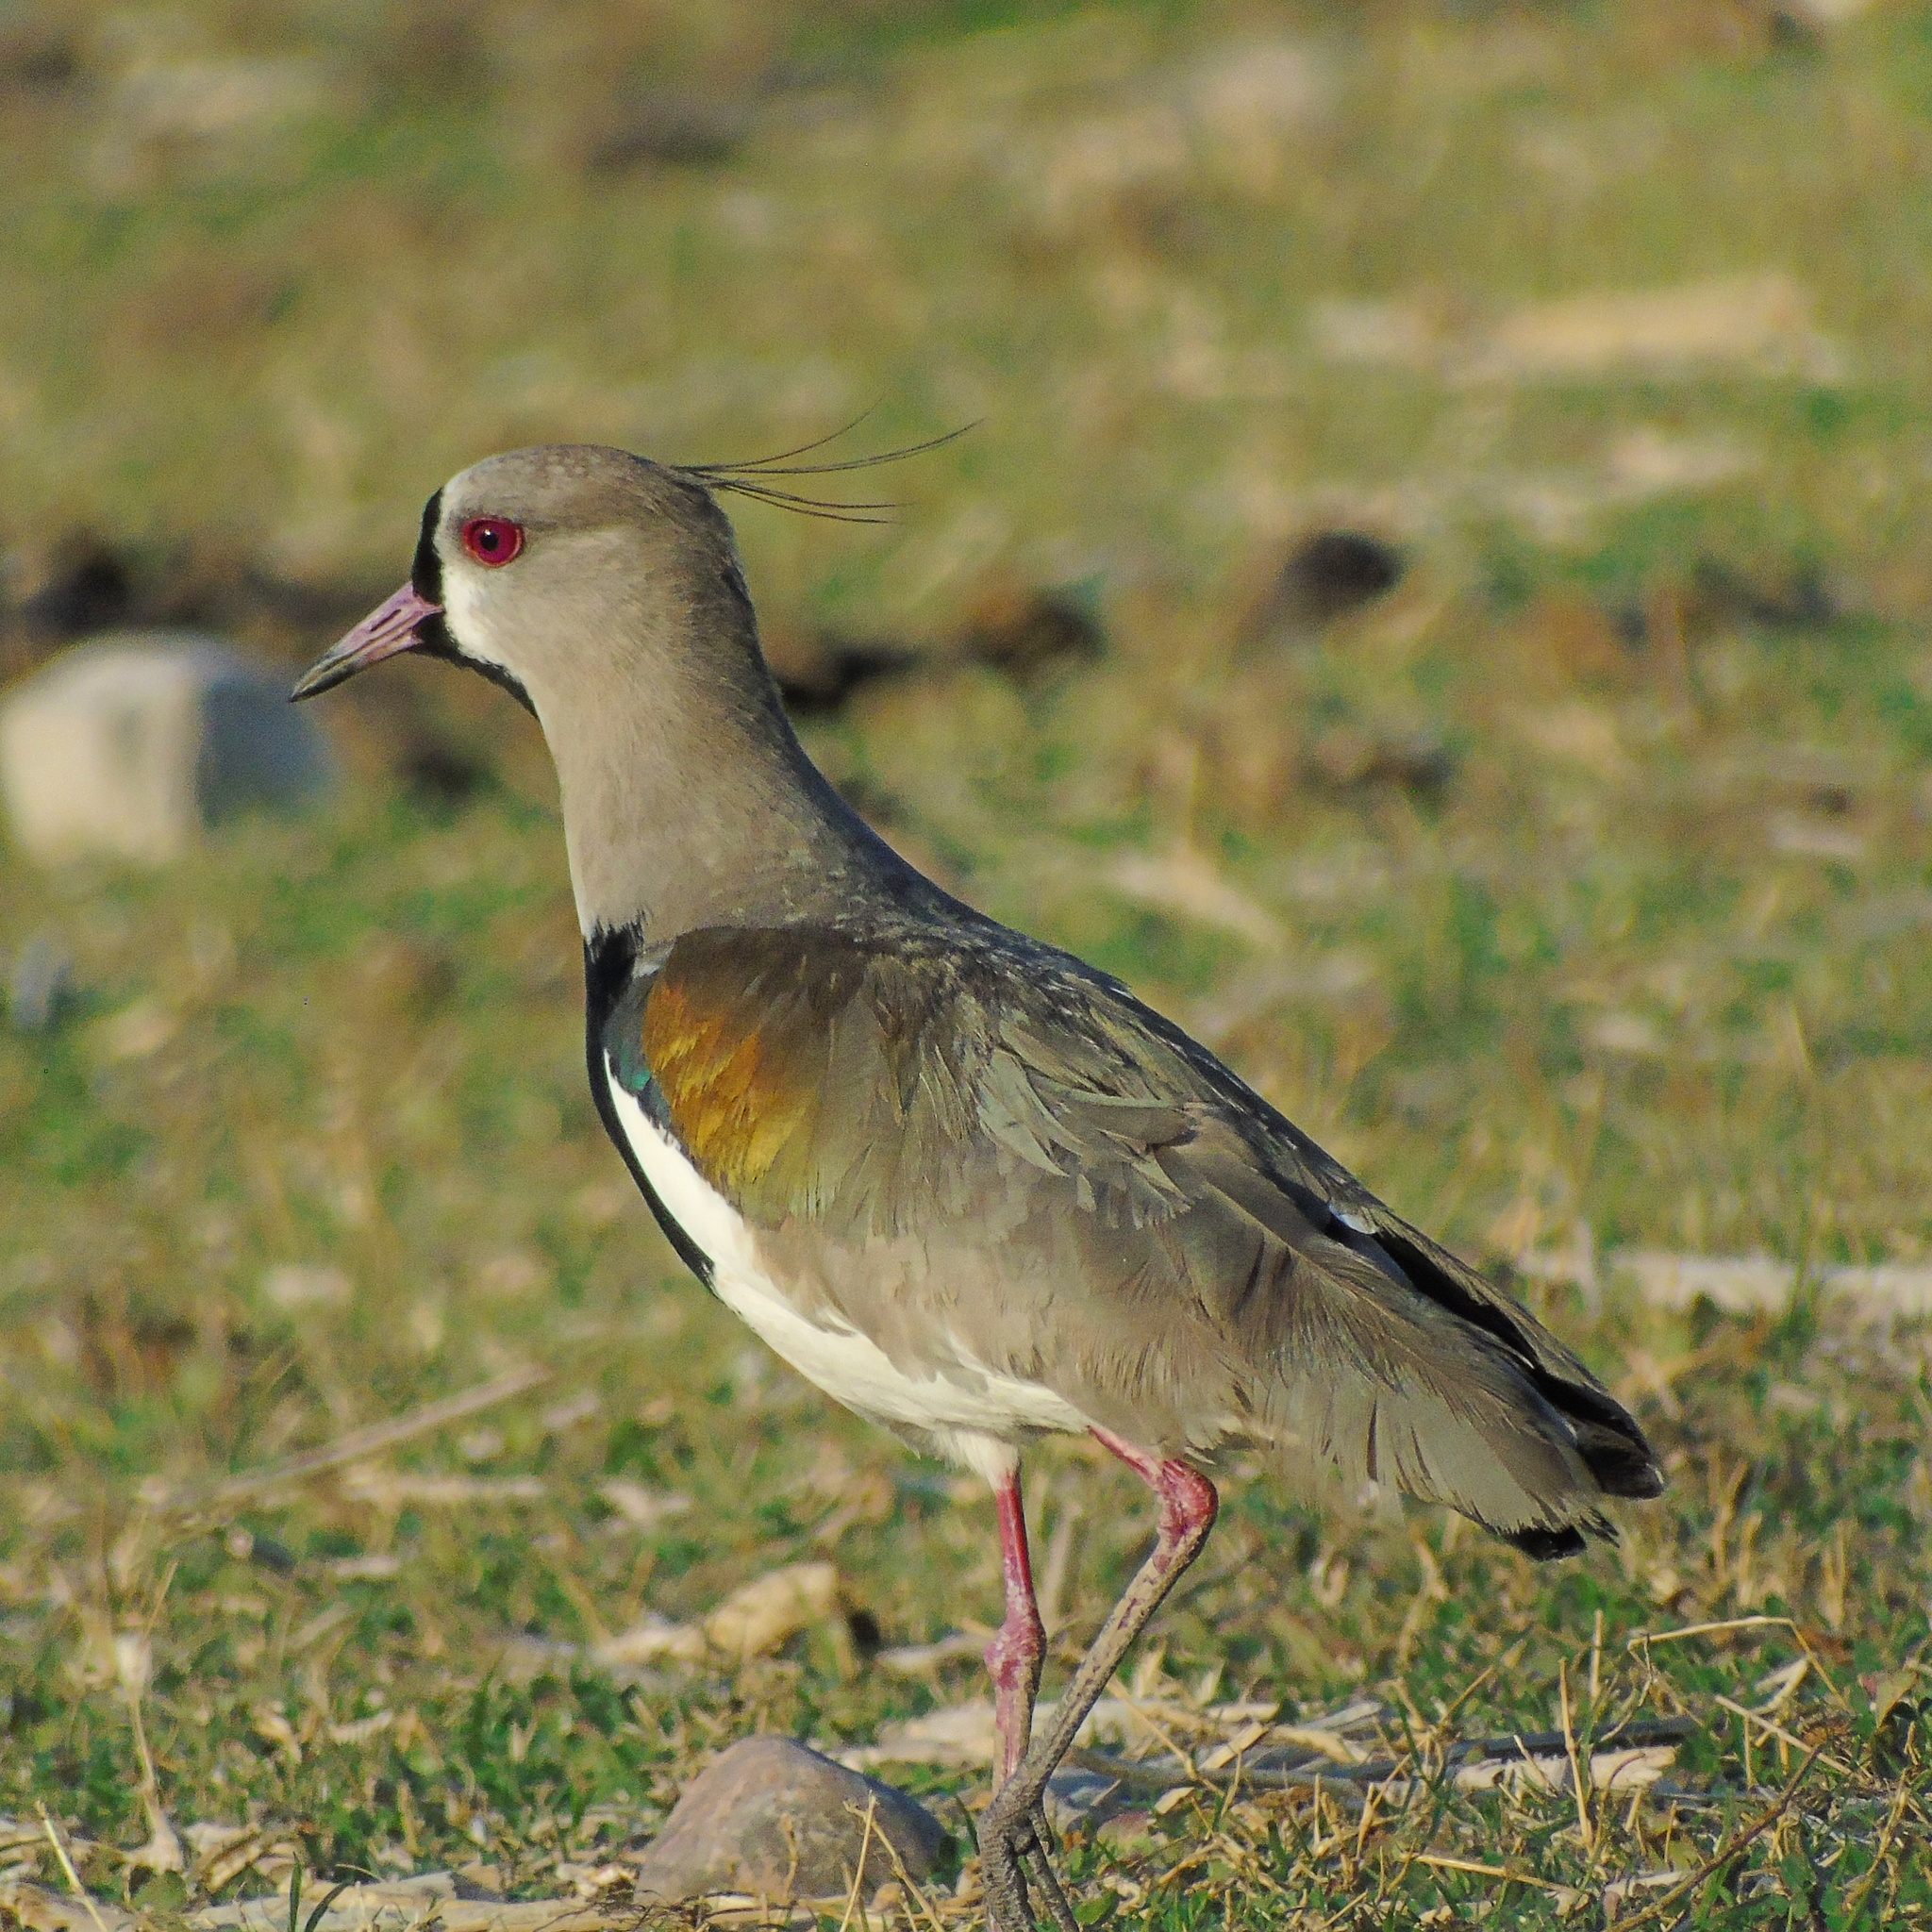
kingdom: Animalia
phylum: Chordata
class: Aves
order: Charadriiformes
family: Charadriidae
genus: Vanellus
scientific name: Vanellus chilensis
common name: Southern lapwing
